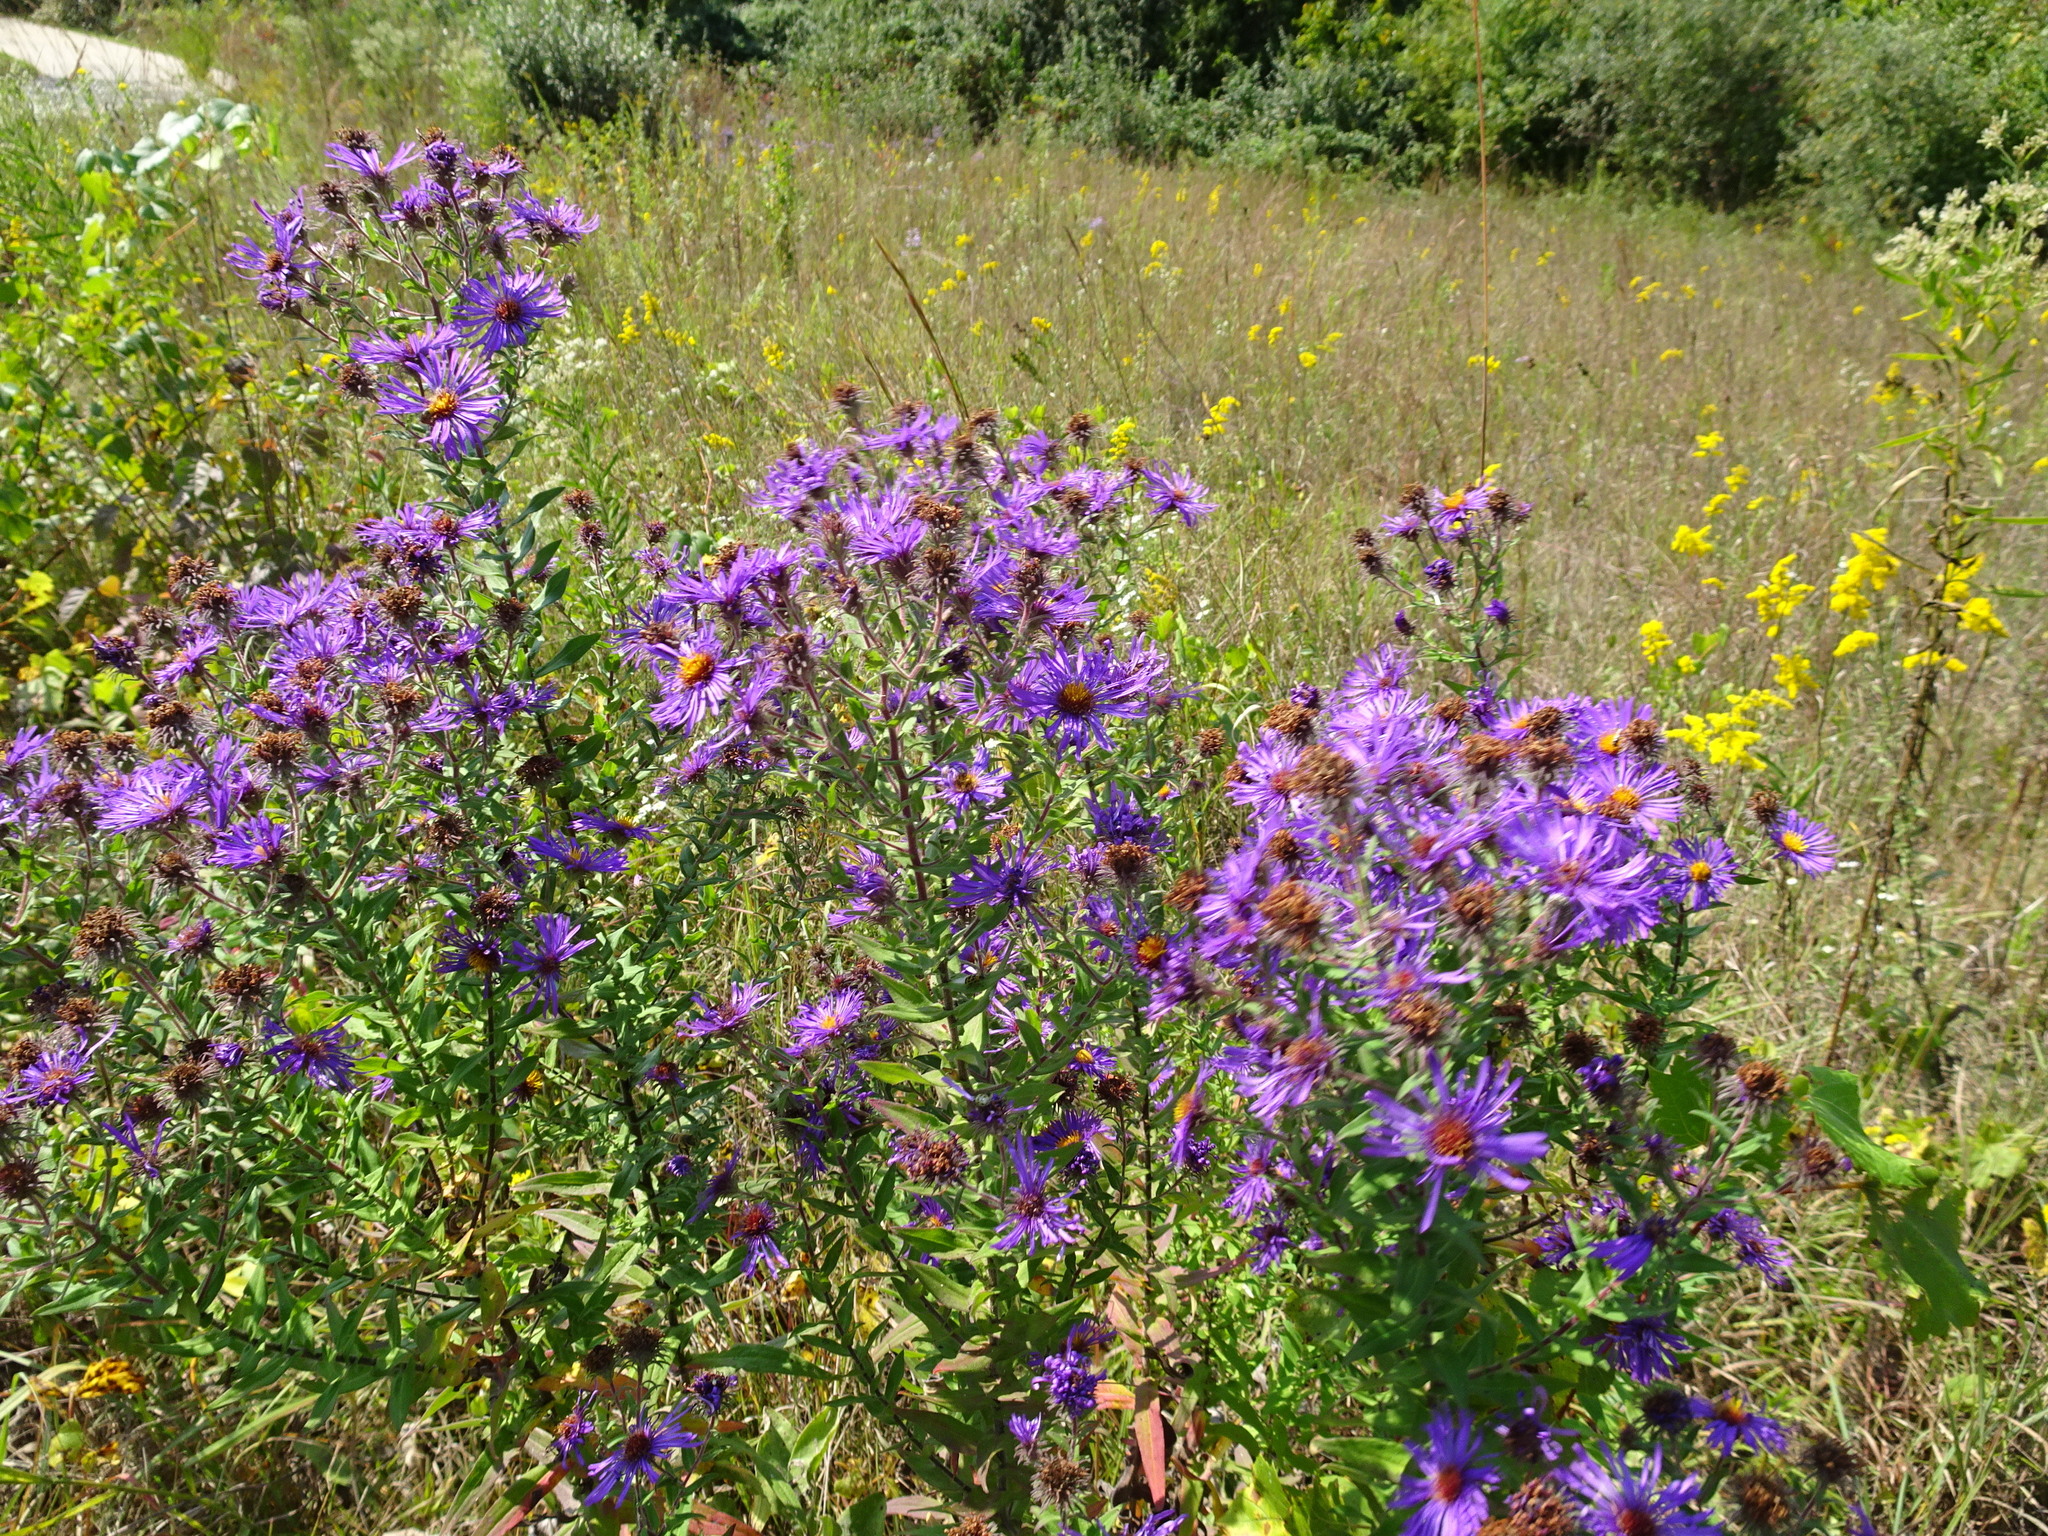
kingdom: Plantae
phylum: Tracheophyta
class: Magnoliopsida
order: Asterales
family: Asteraceae
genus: Symphyotrichum
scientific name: Symphyotrichum novae-angliae
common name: Michaelmas daisy
